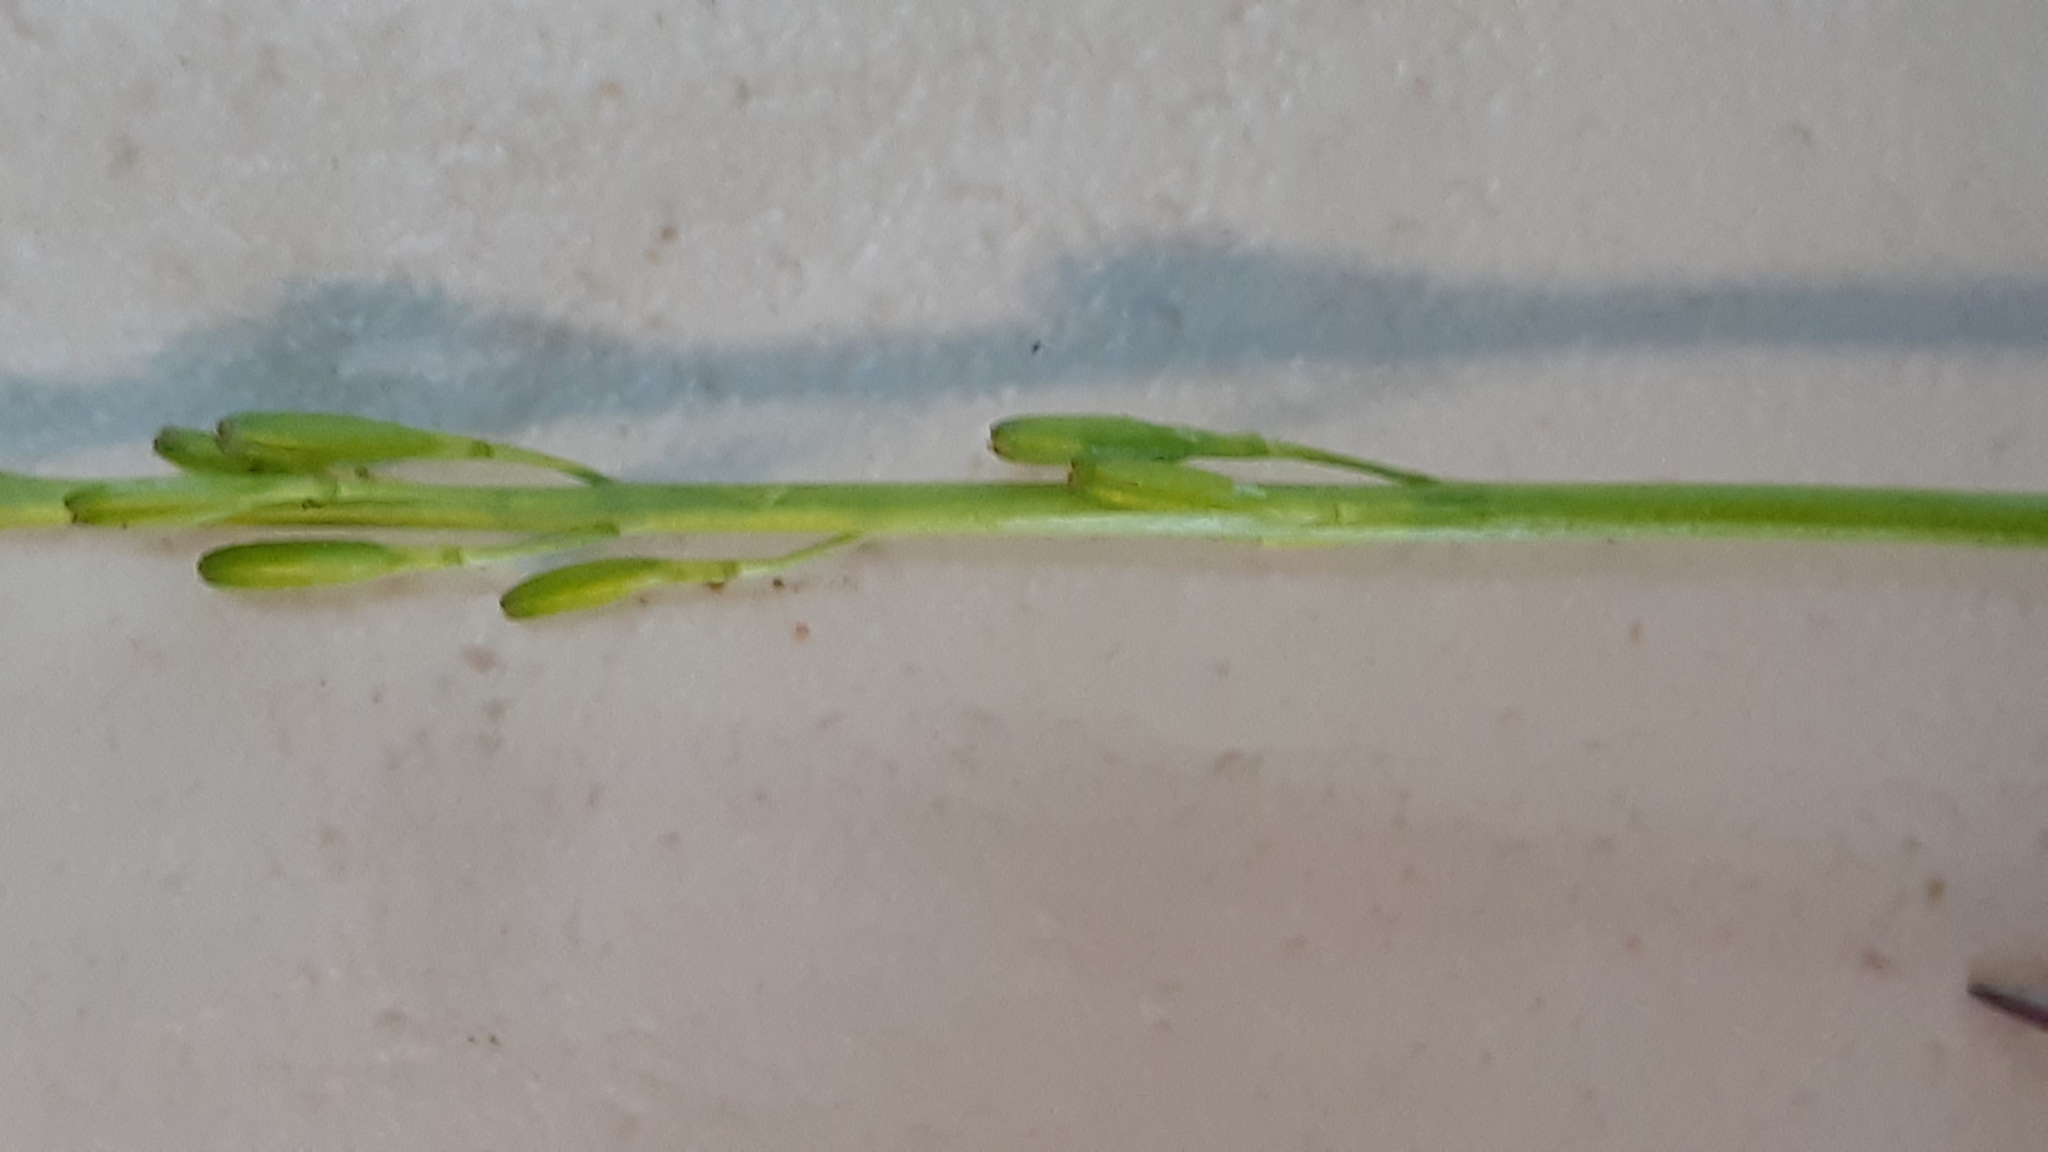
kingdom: Plantae
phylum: Tracheophyta
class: Liliopsida
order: Alismatales
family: Juncaginaceae
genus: Triglochin
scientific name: Triglochin palustris
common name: Marsh arrowgrass
